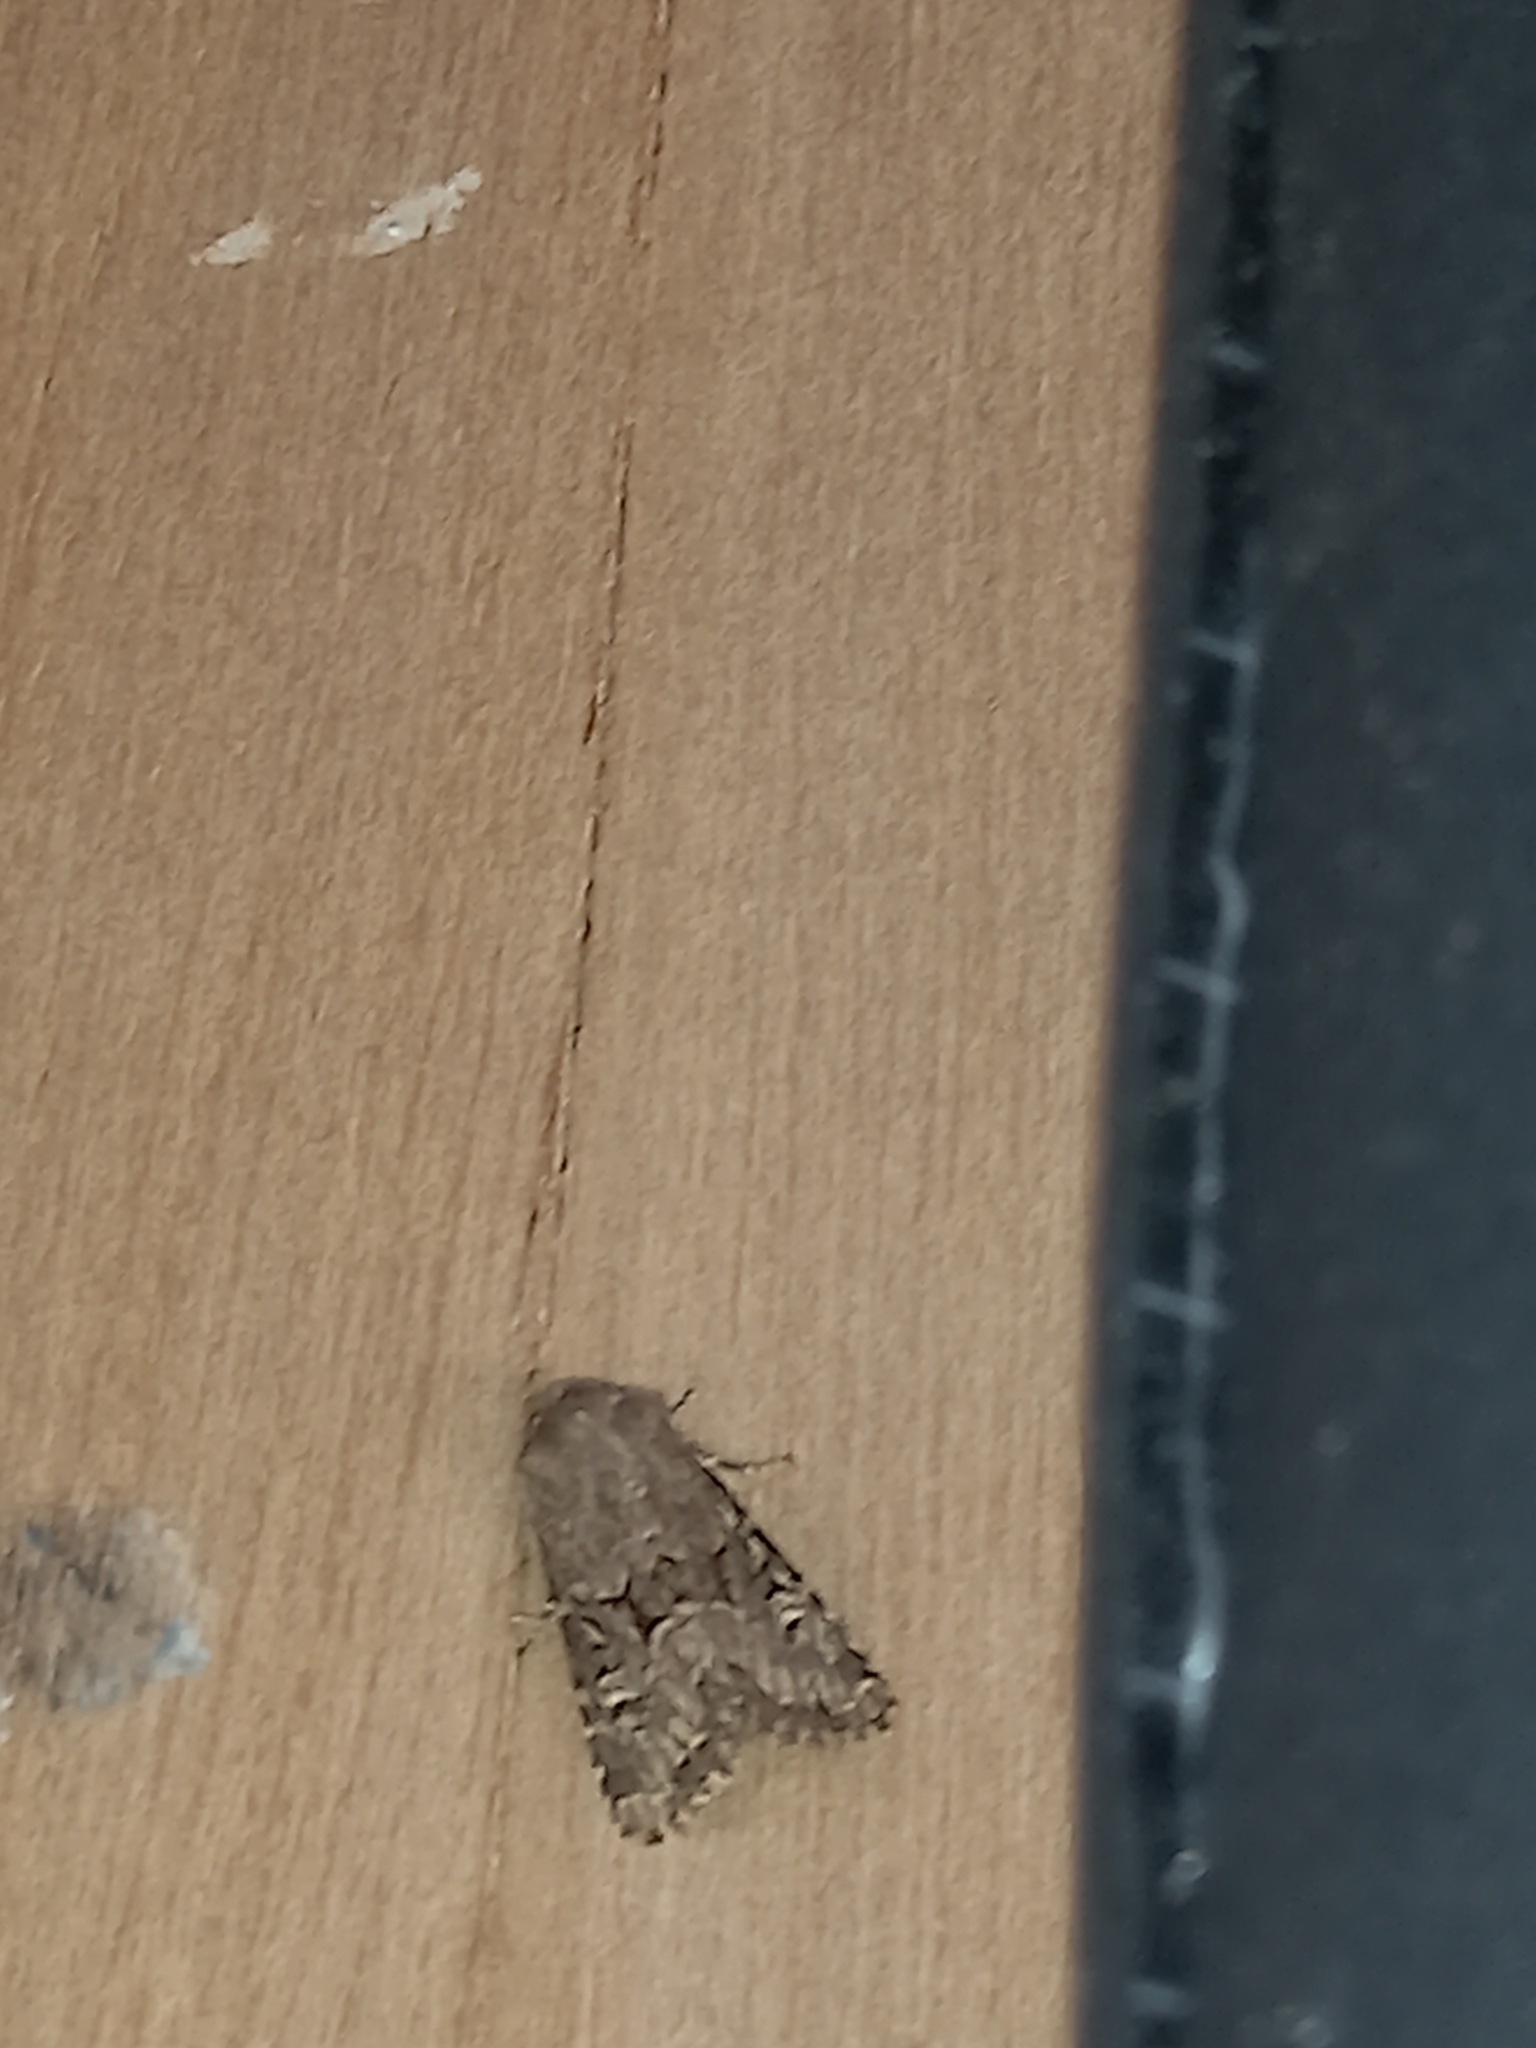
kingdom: Animalia
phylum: Arthropoda
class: Insecta
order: Lepidoptera
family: Noctuidae
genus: Luperina
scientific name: Luperina testacea
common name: Flounced rustic
